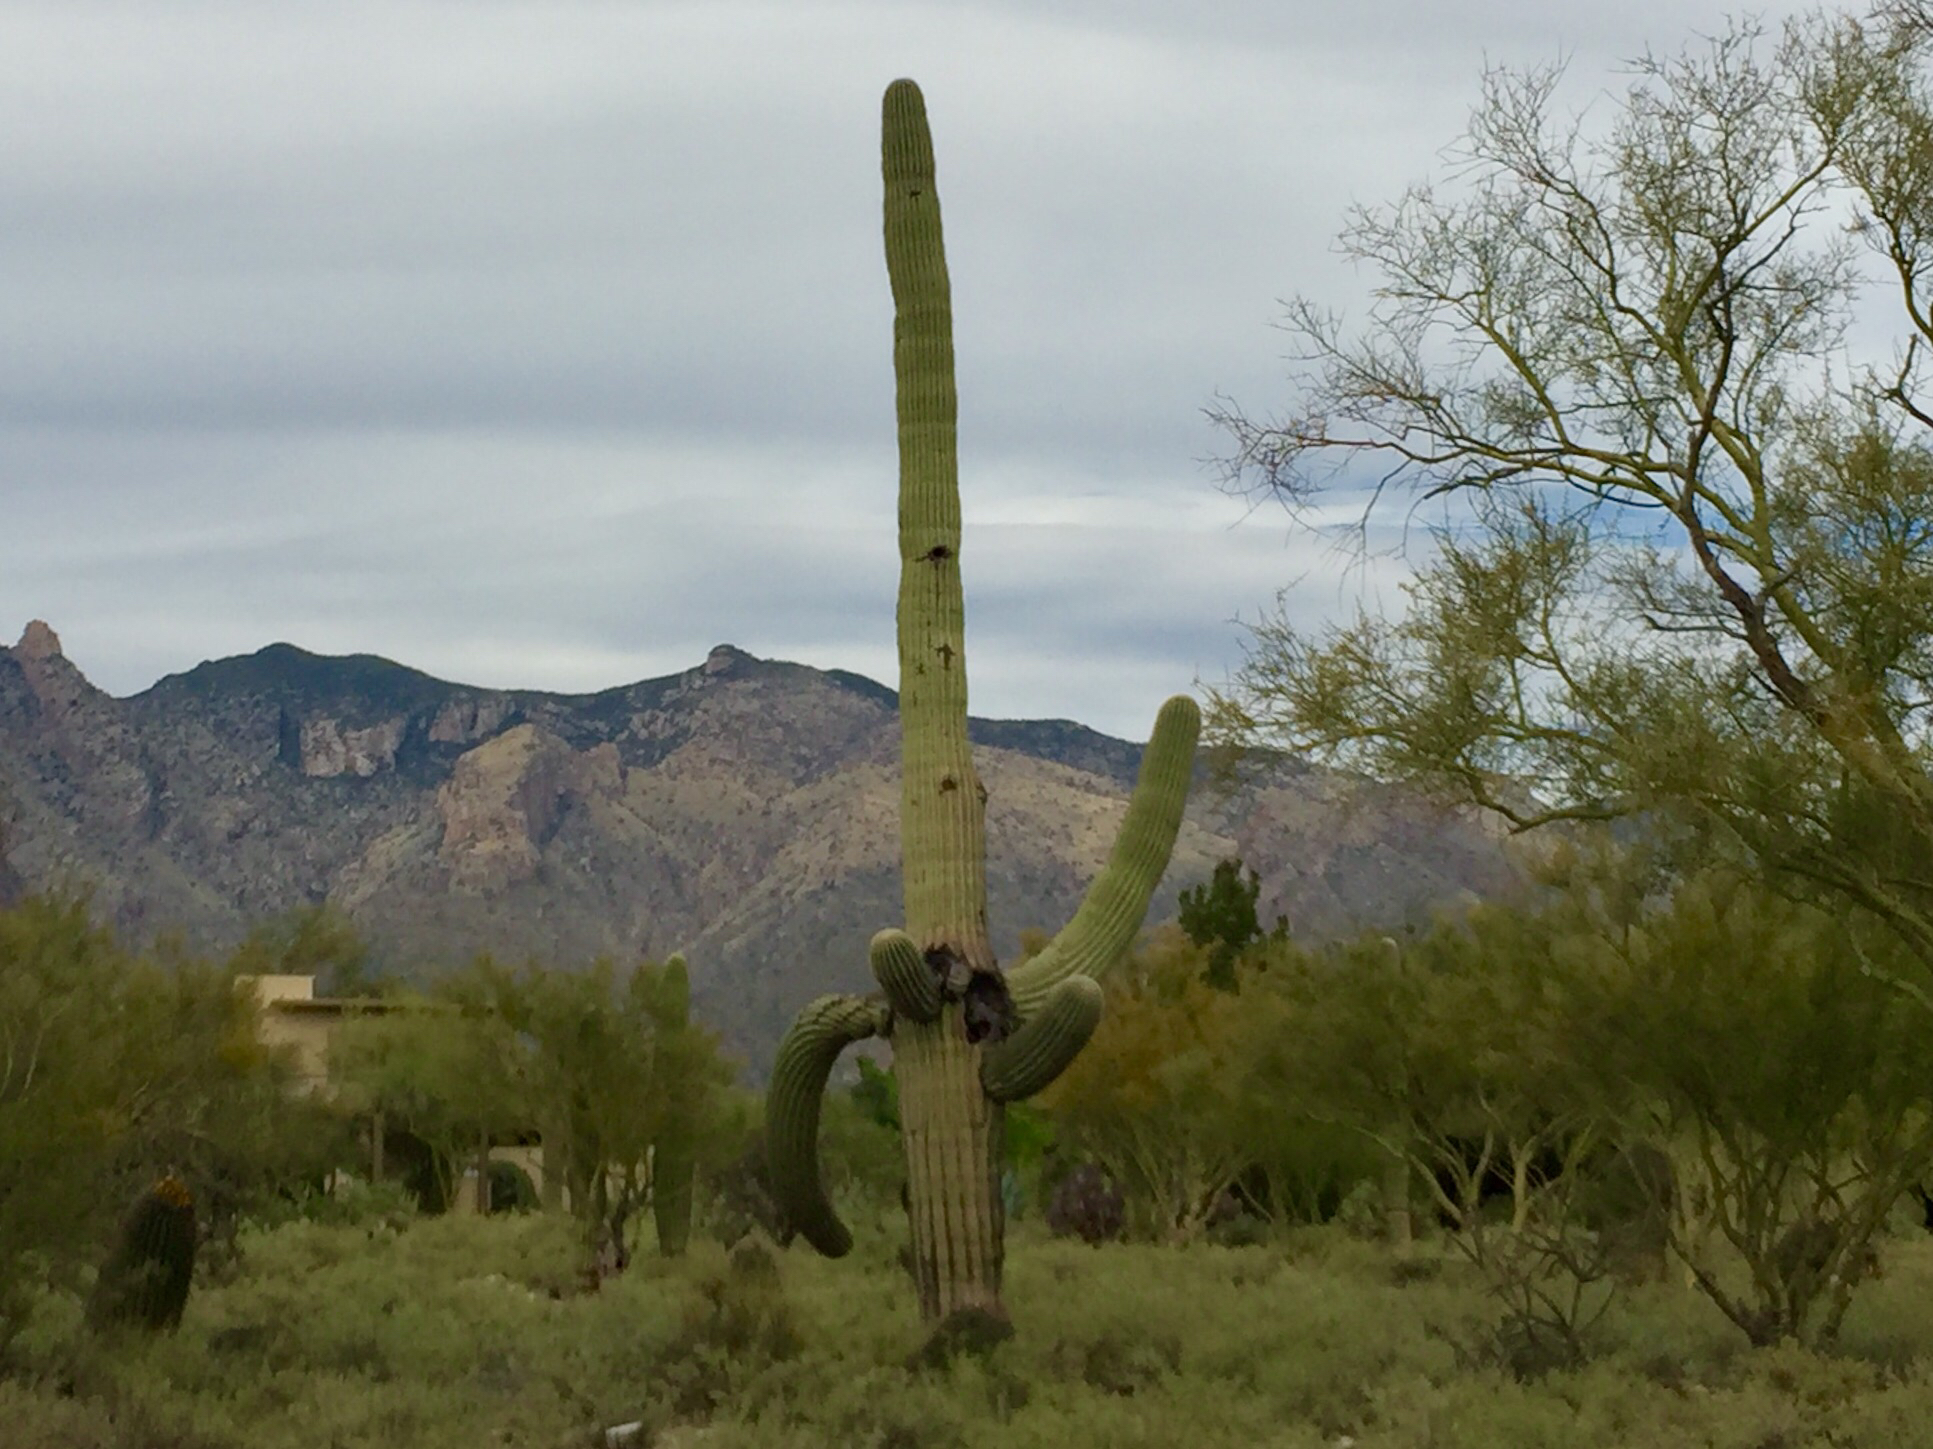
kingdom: Plantae
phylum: Tracheophyta
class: Magnoliopsida
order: Caryophyllales
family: Cactaceae
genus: Carnegiea
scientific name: Carnegiea gigantea
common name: Saguaro
